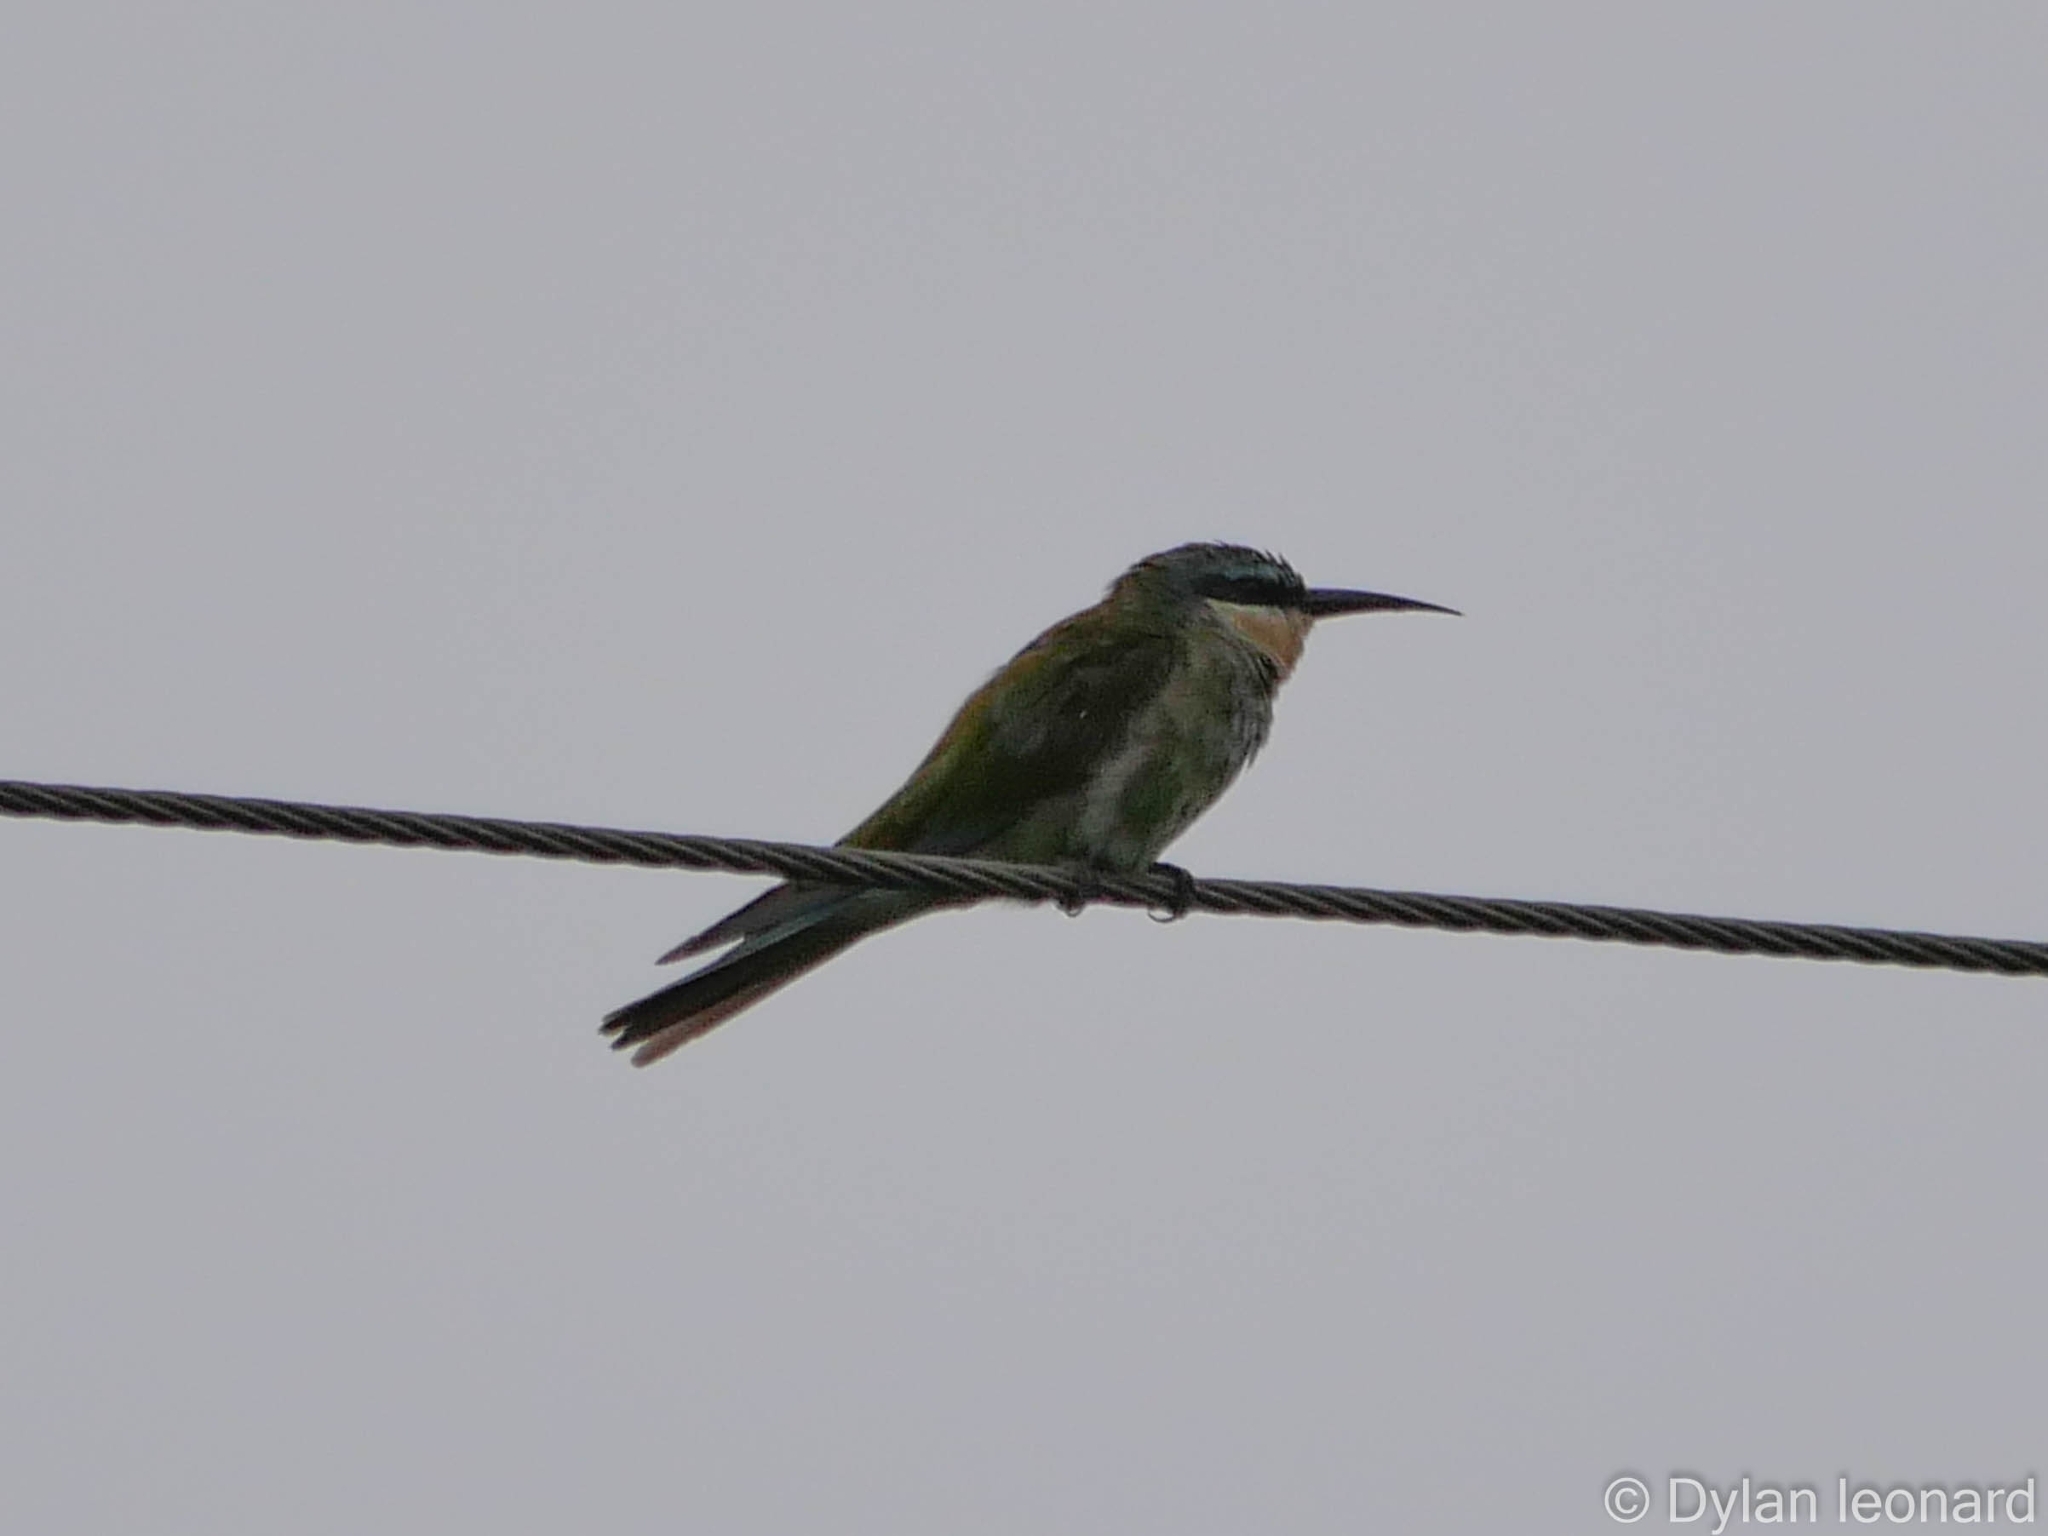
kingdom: Animalia
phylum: Chordata
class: Aves
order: Coraciiformes
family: Meropidae
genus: Merops
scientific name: Merops persicus
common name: Blue-cheeked bee-eater
